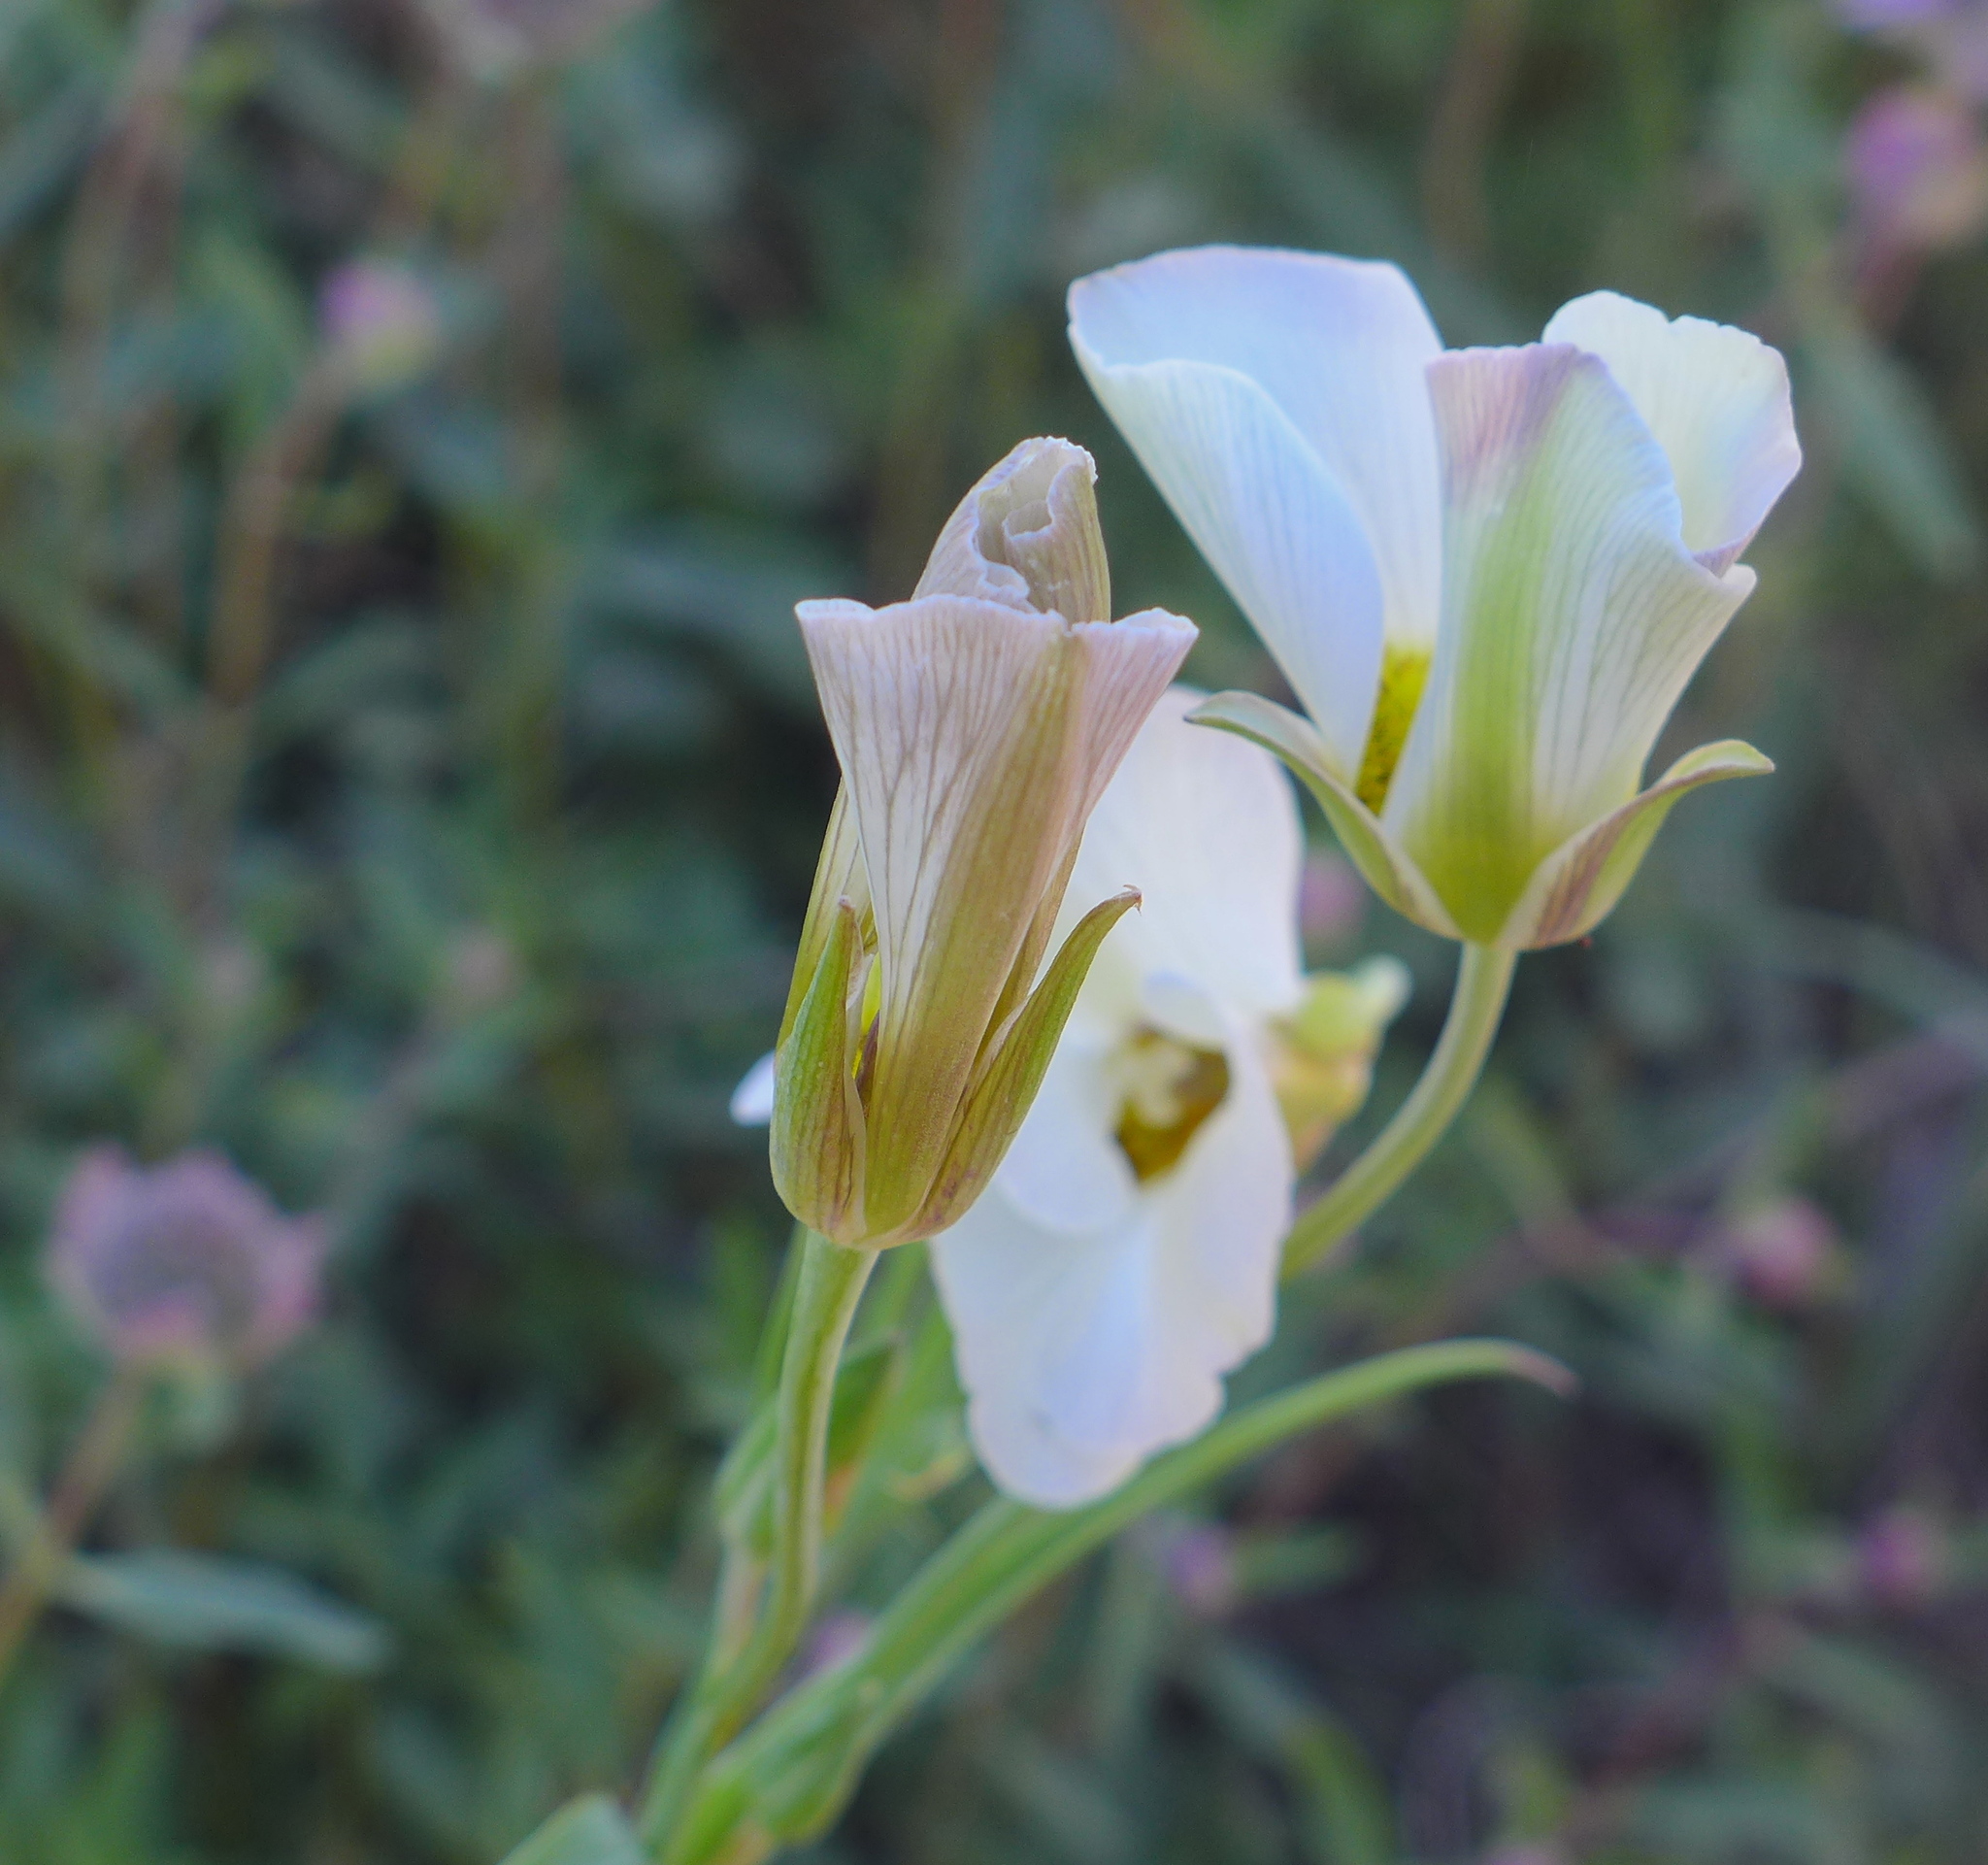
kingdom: Plantae
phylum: Tracheophyta
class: Liliopsida
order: Liliales
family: Liliaceae
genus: Calochortus
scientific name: Calochortus leichtlinii
